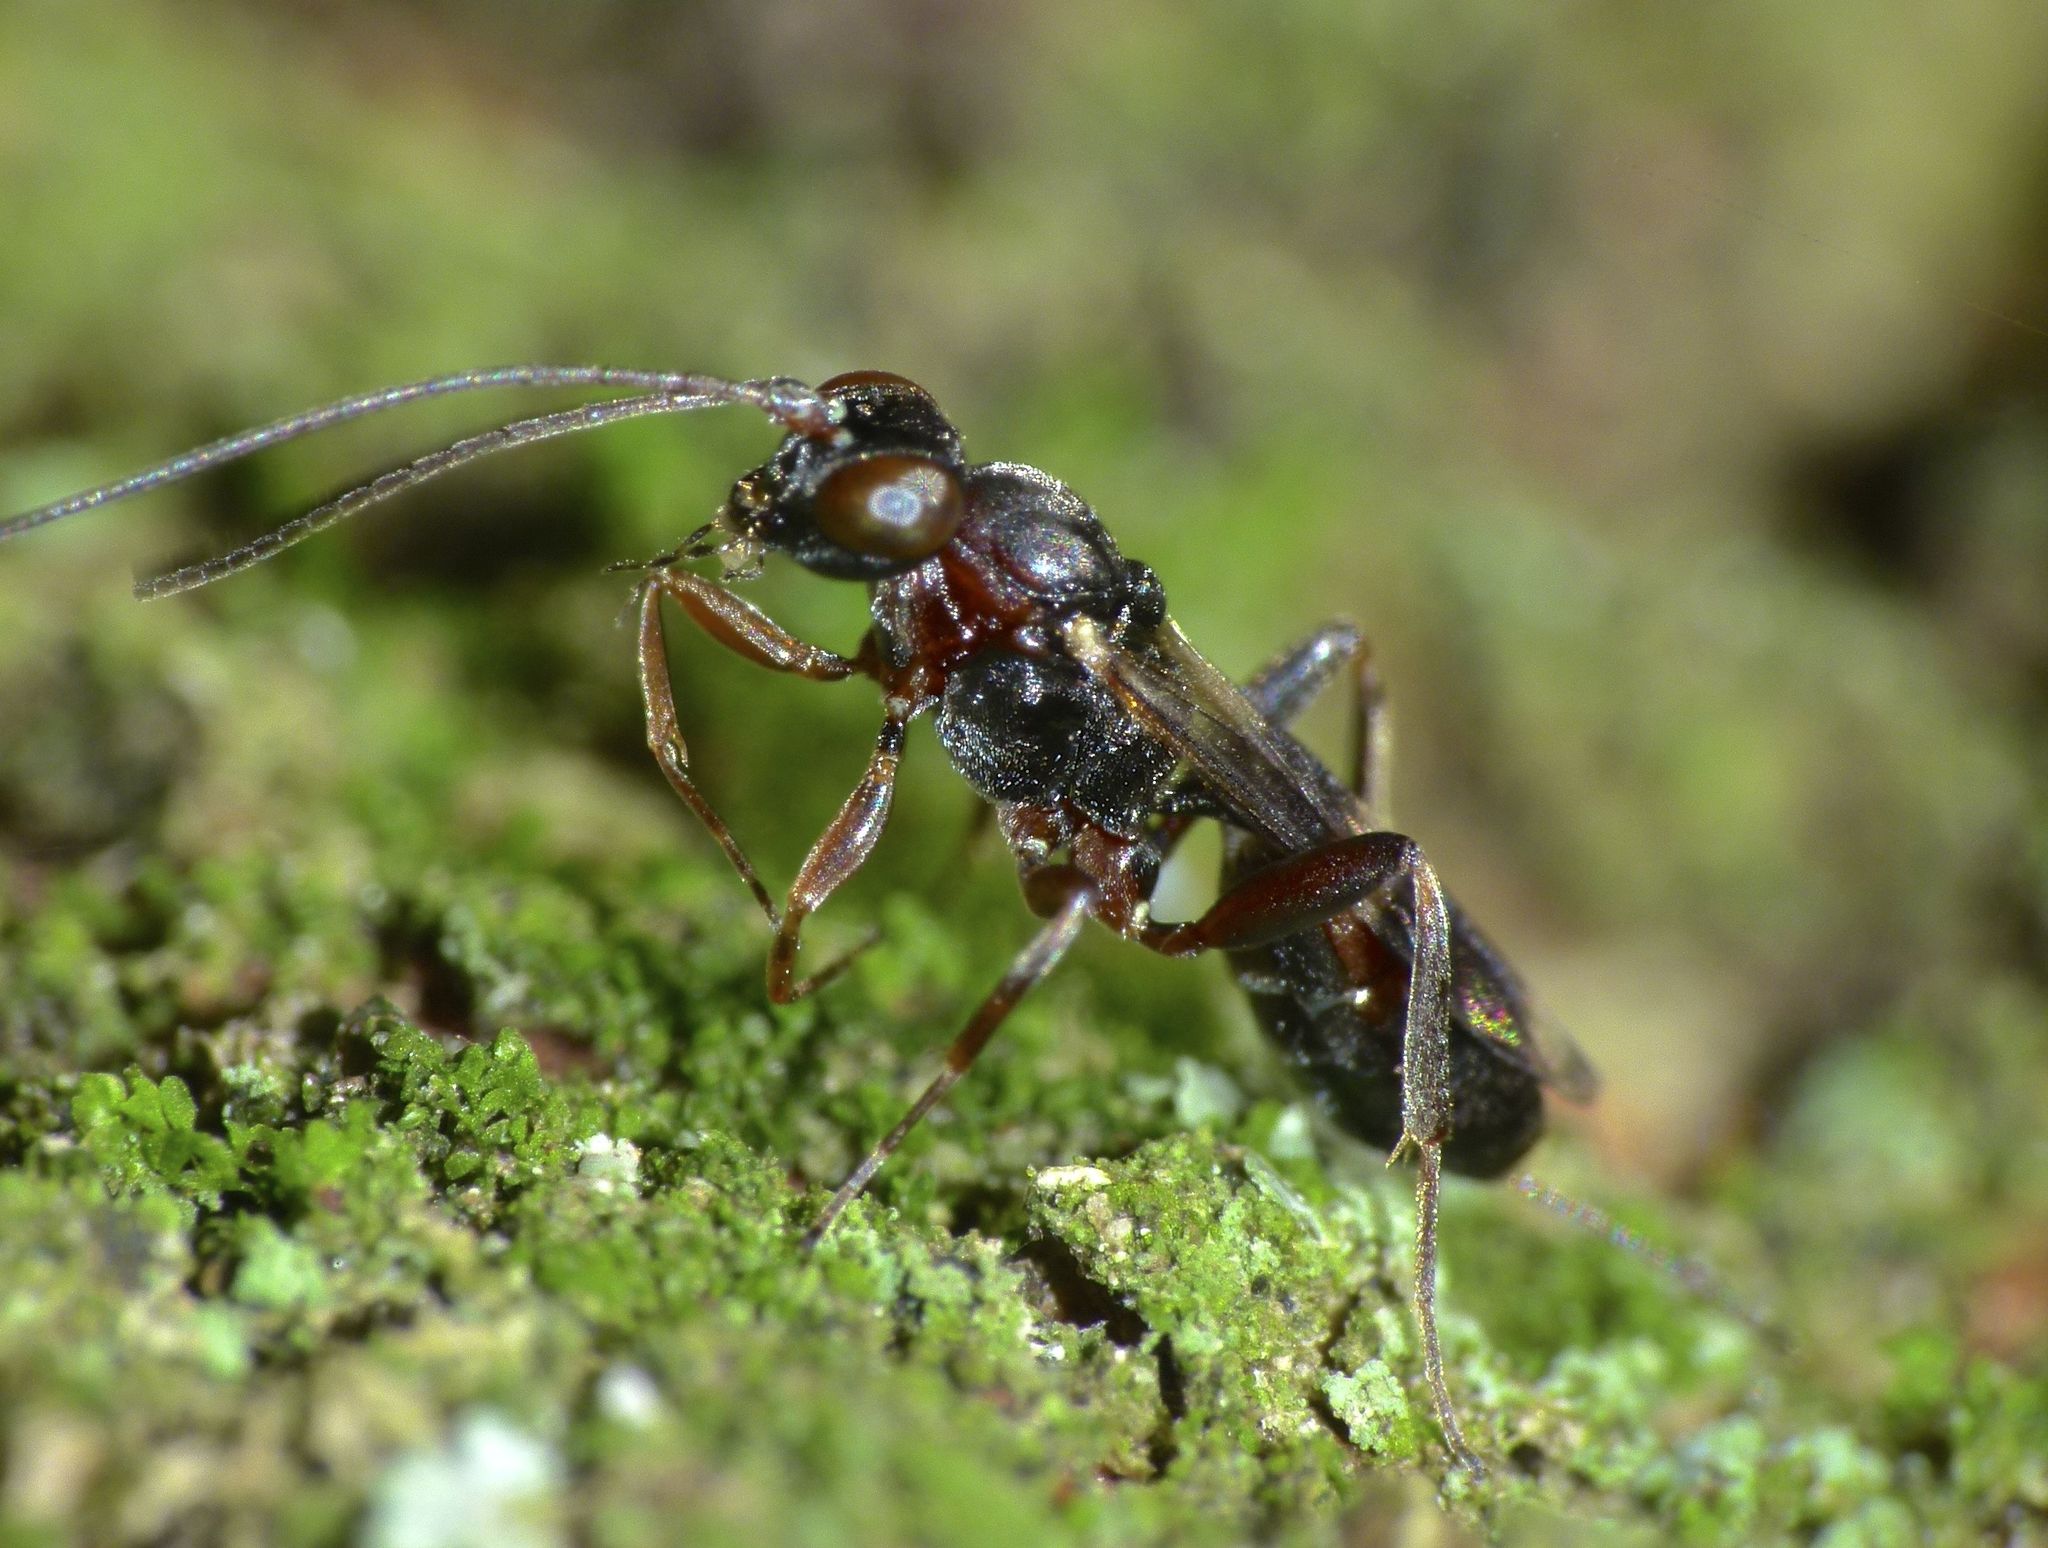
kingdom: Animalia
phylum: Arthropoda
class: Insecta
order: Hymenoptera
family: Ichneumonidae
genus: Gelis
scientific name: Gelis cinctus
